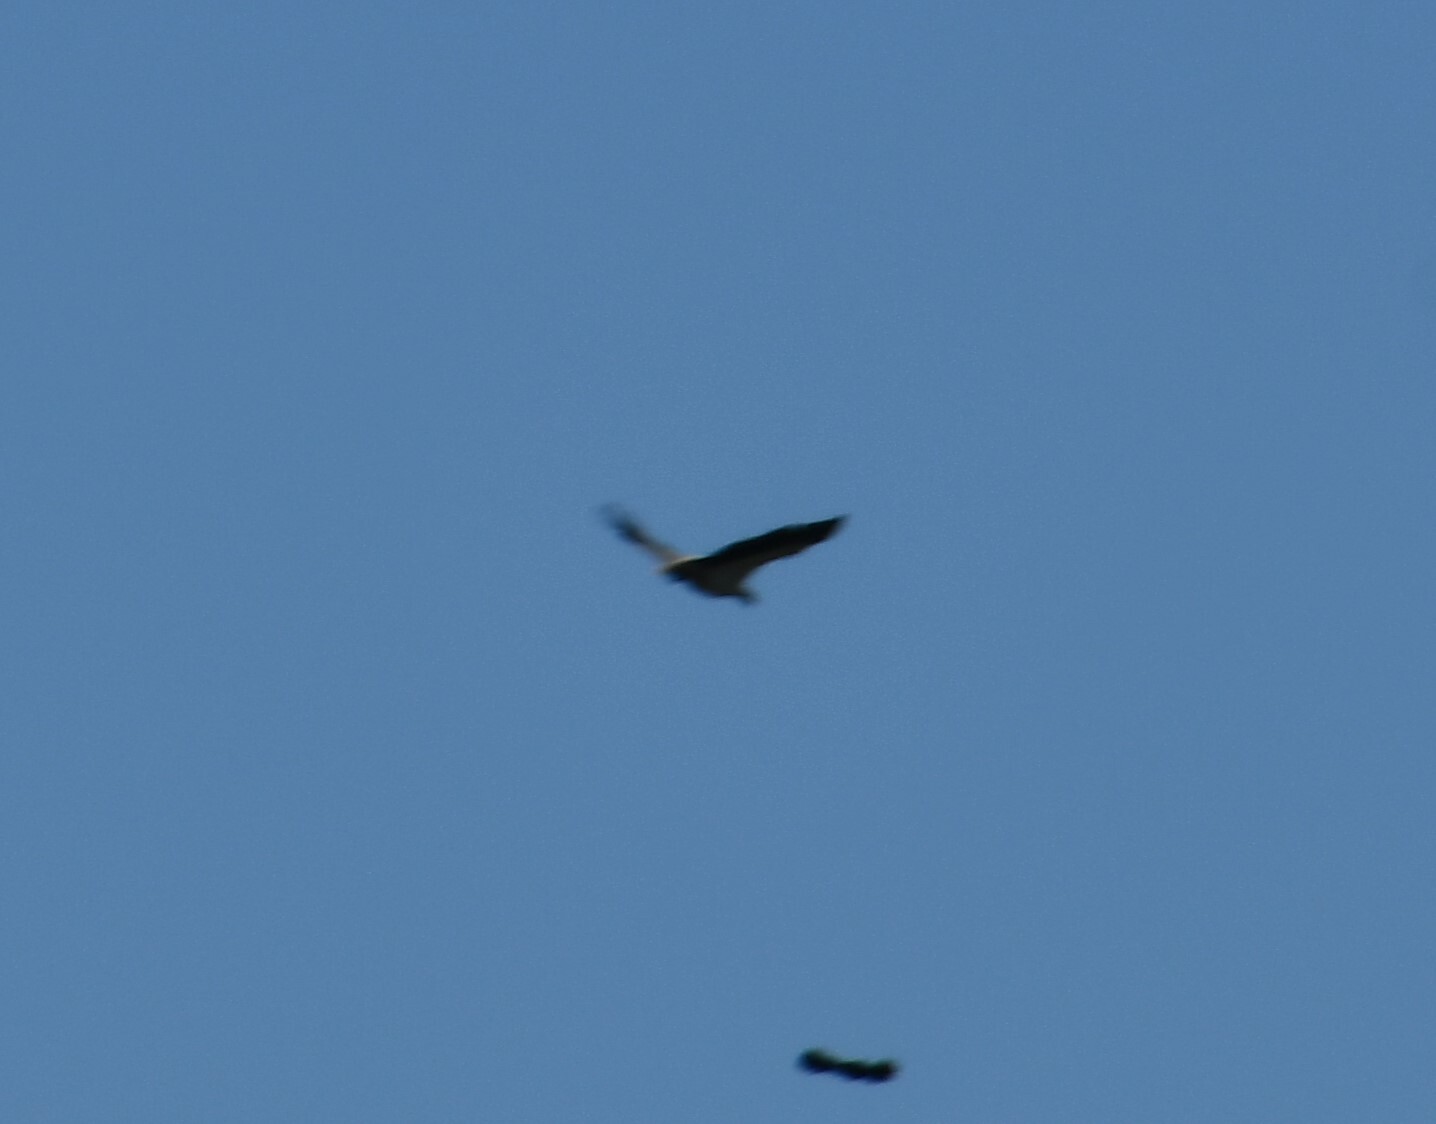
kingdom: Animalia
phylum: Chordata
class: Aves
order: Accipitriformes
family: Accipitridae
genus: Haliaeetus
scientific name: Haliaeetus leucogaster
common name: White-bellied sea eagle
